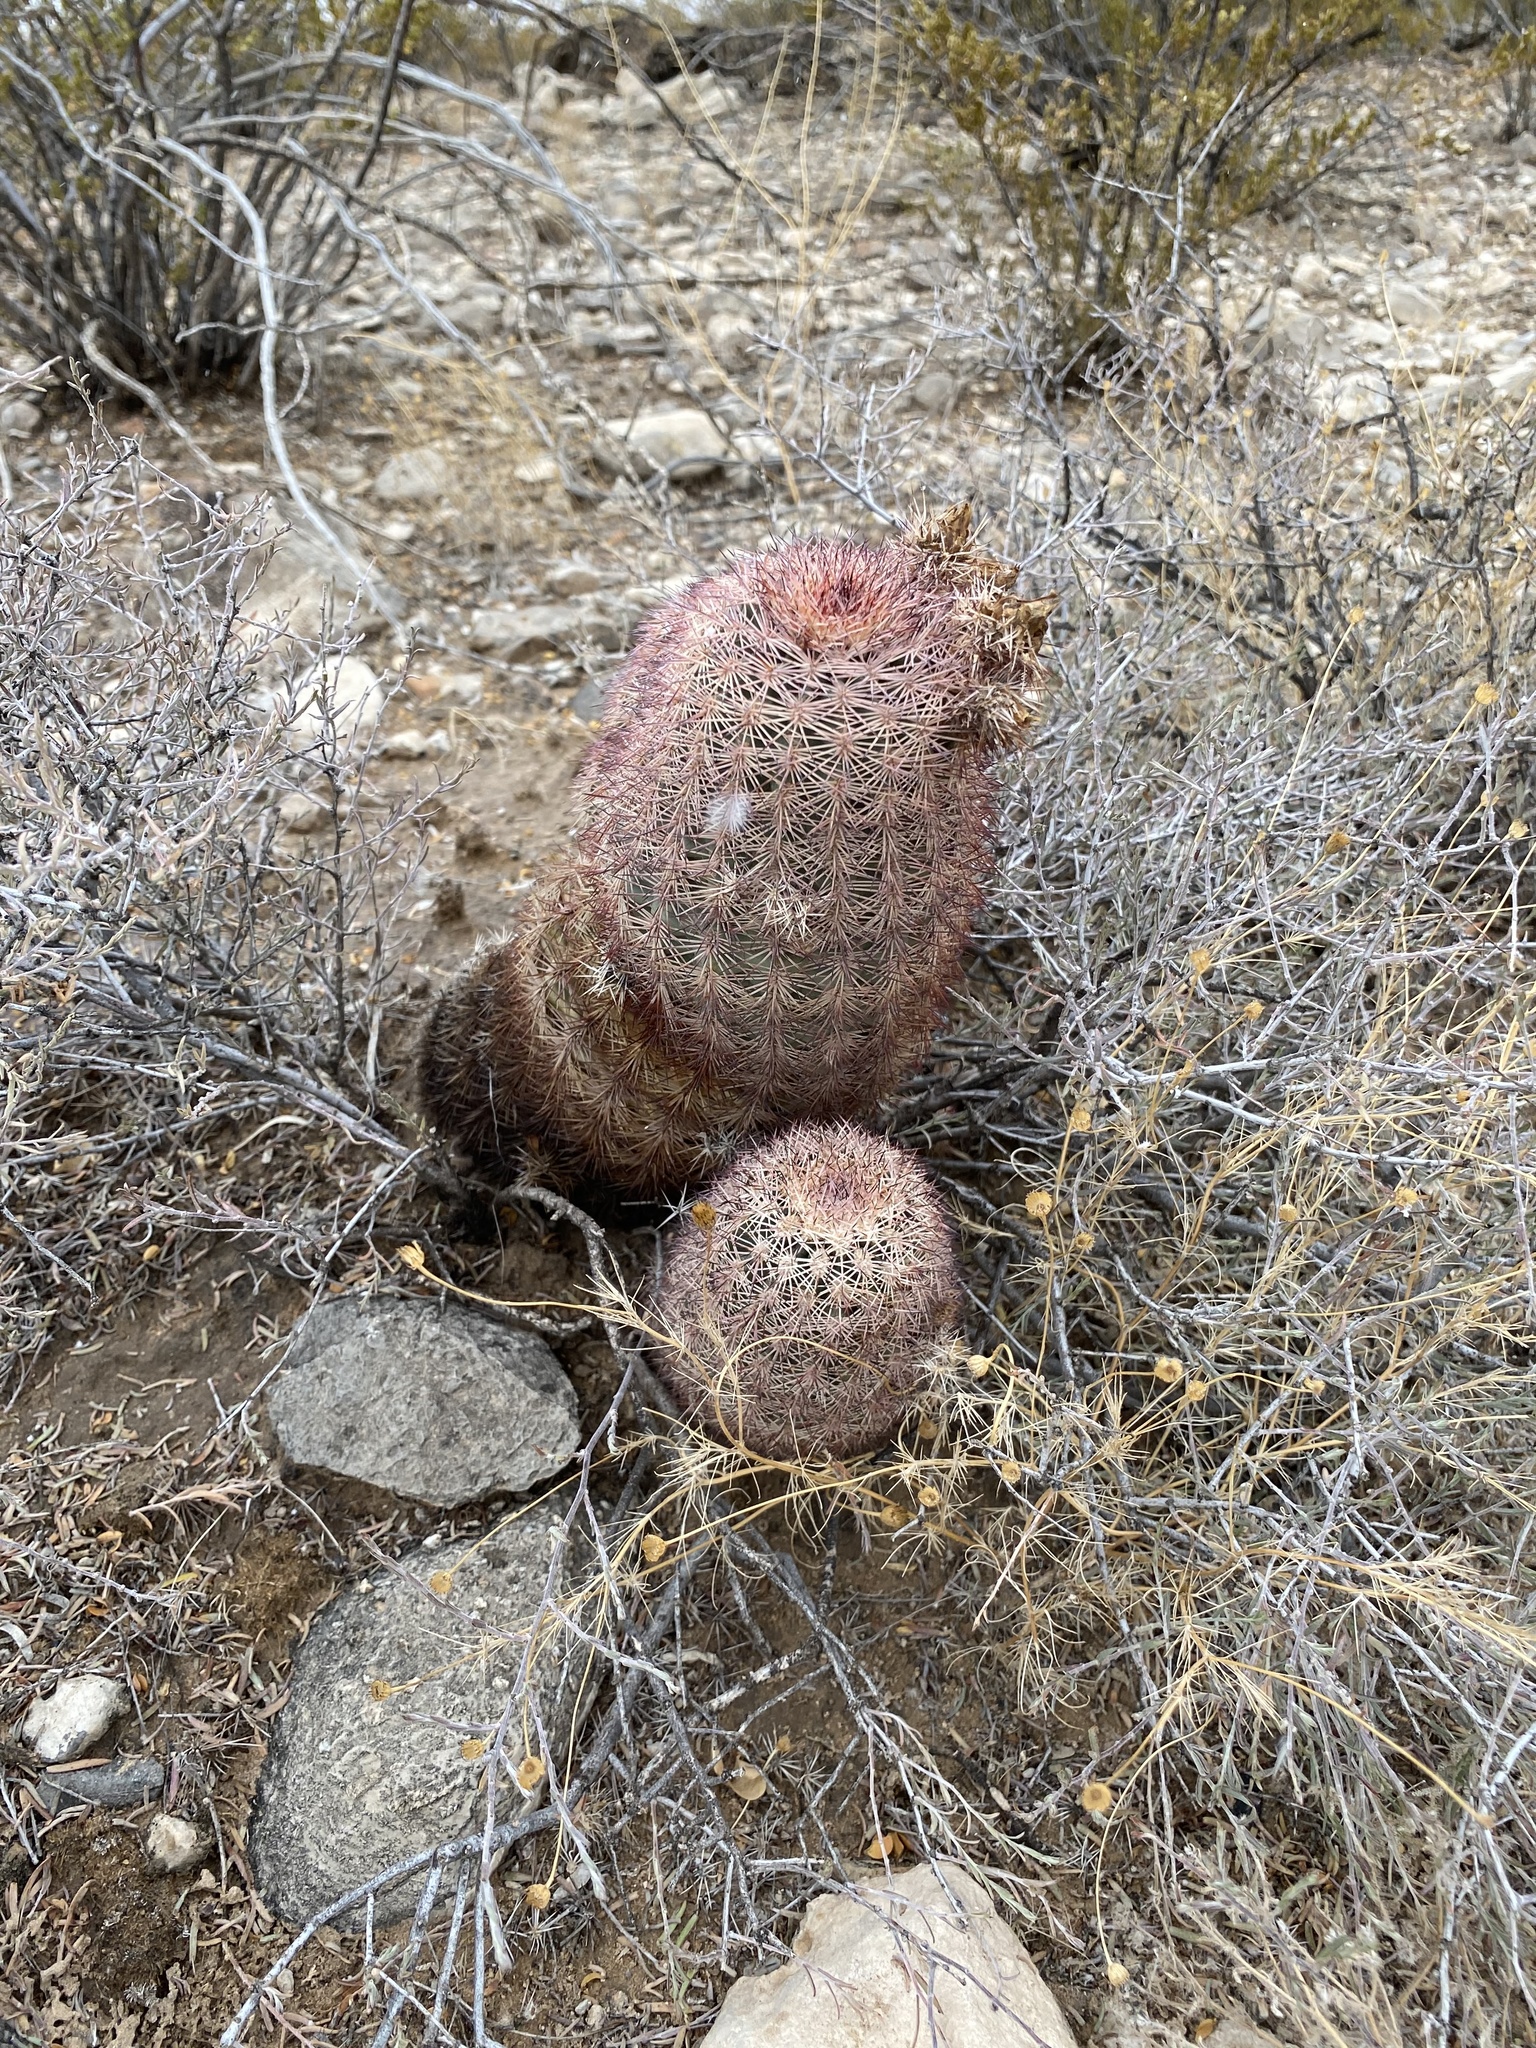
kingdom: Plantae
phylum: Tracheophyta
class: Magnoliopsida
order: Caryophyllales
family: Cactaceae
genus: Echinocereus
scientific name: Echinocereus dasyacanthus
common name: Spiny hedgehog cactus
